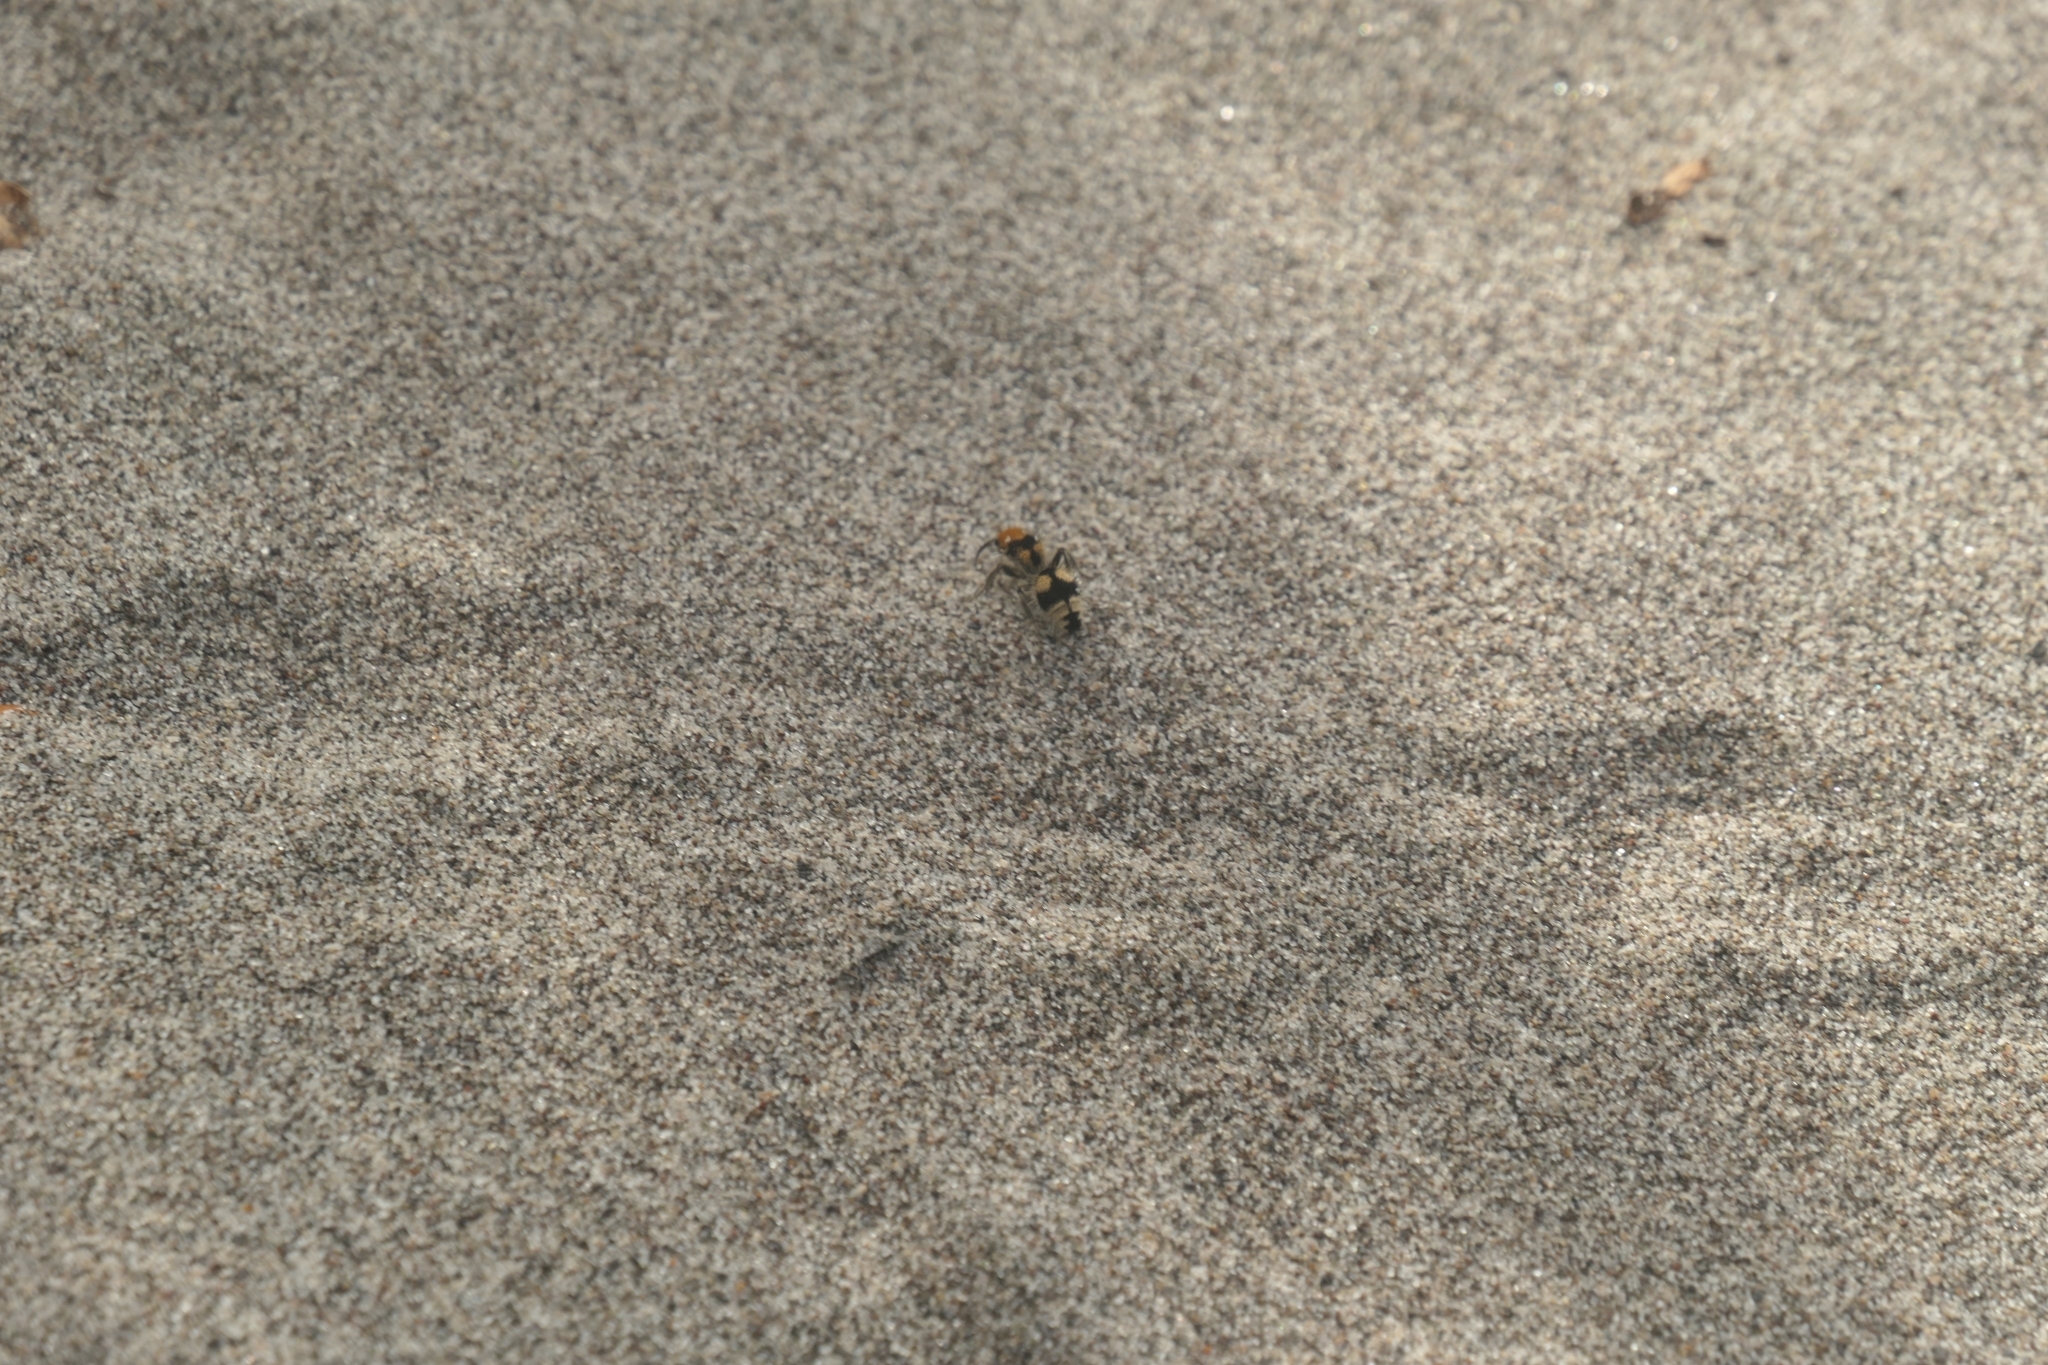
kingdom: Animalia
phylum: Arthropoda
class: Insecta
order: Hymenoptera
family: Mutillidae
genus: Dasymutilla
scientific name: Dasymutilla araneoides
